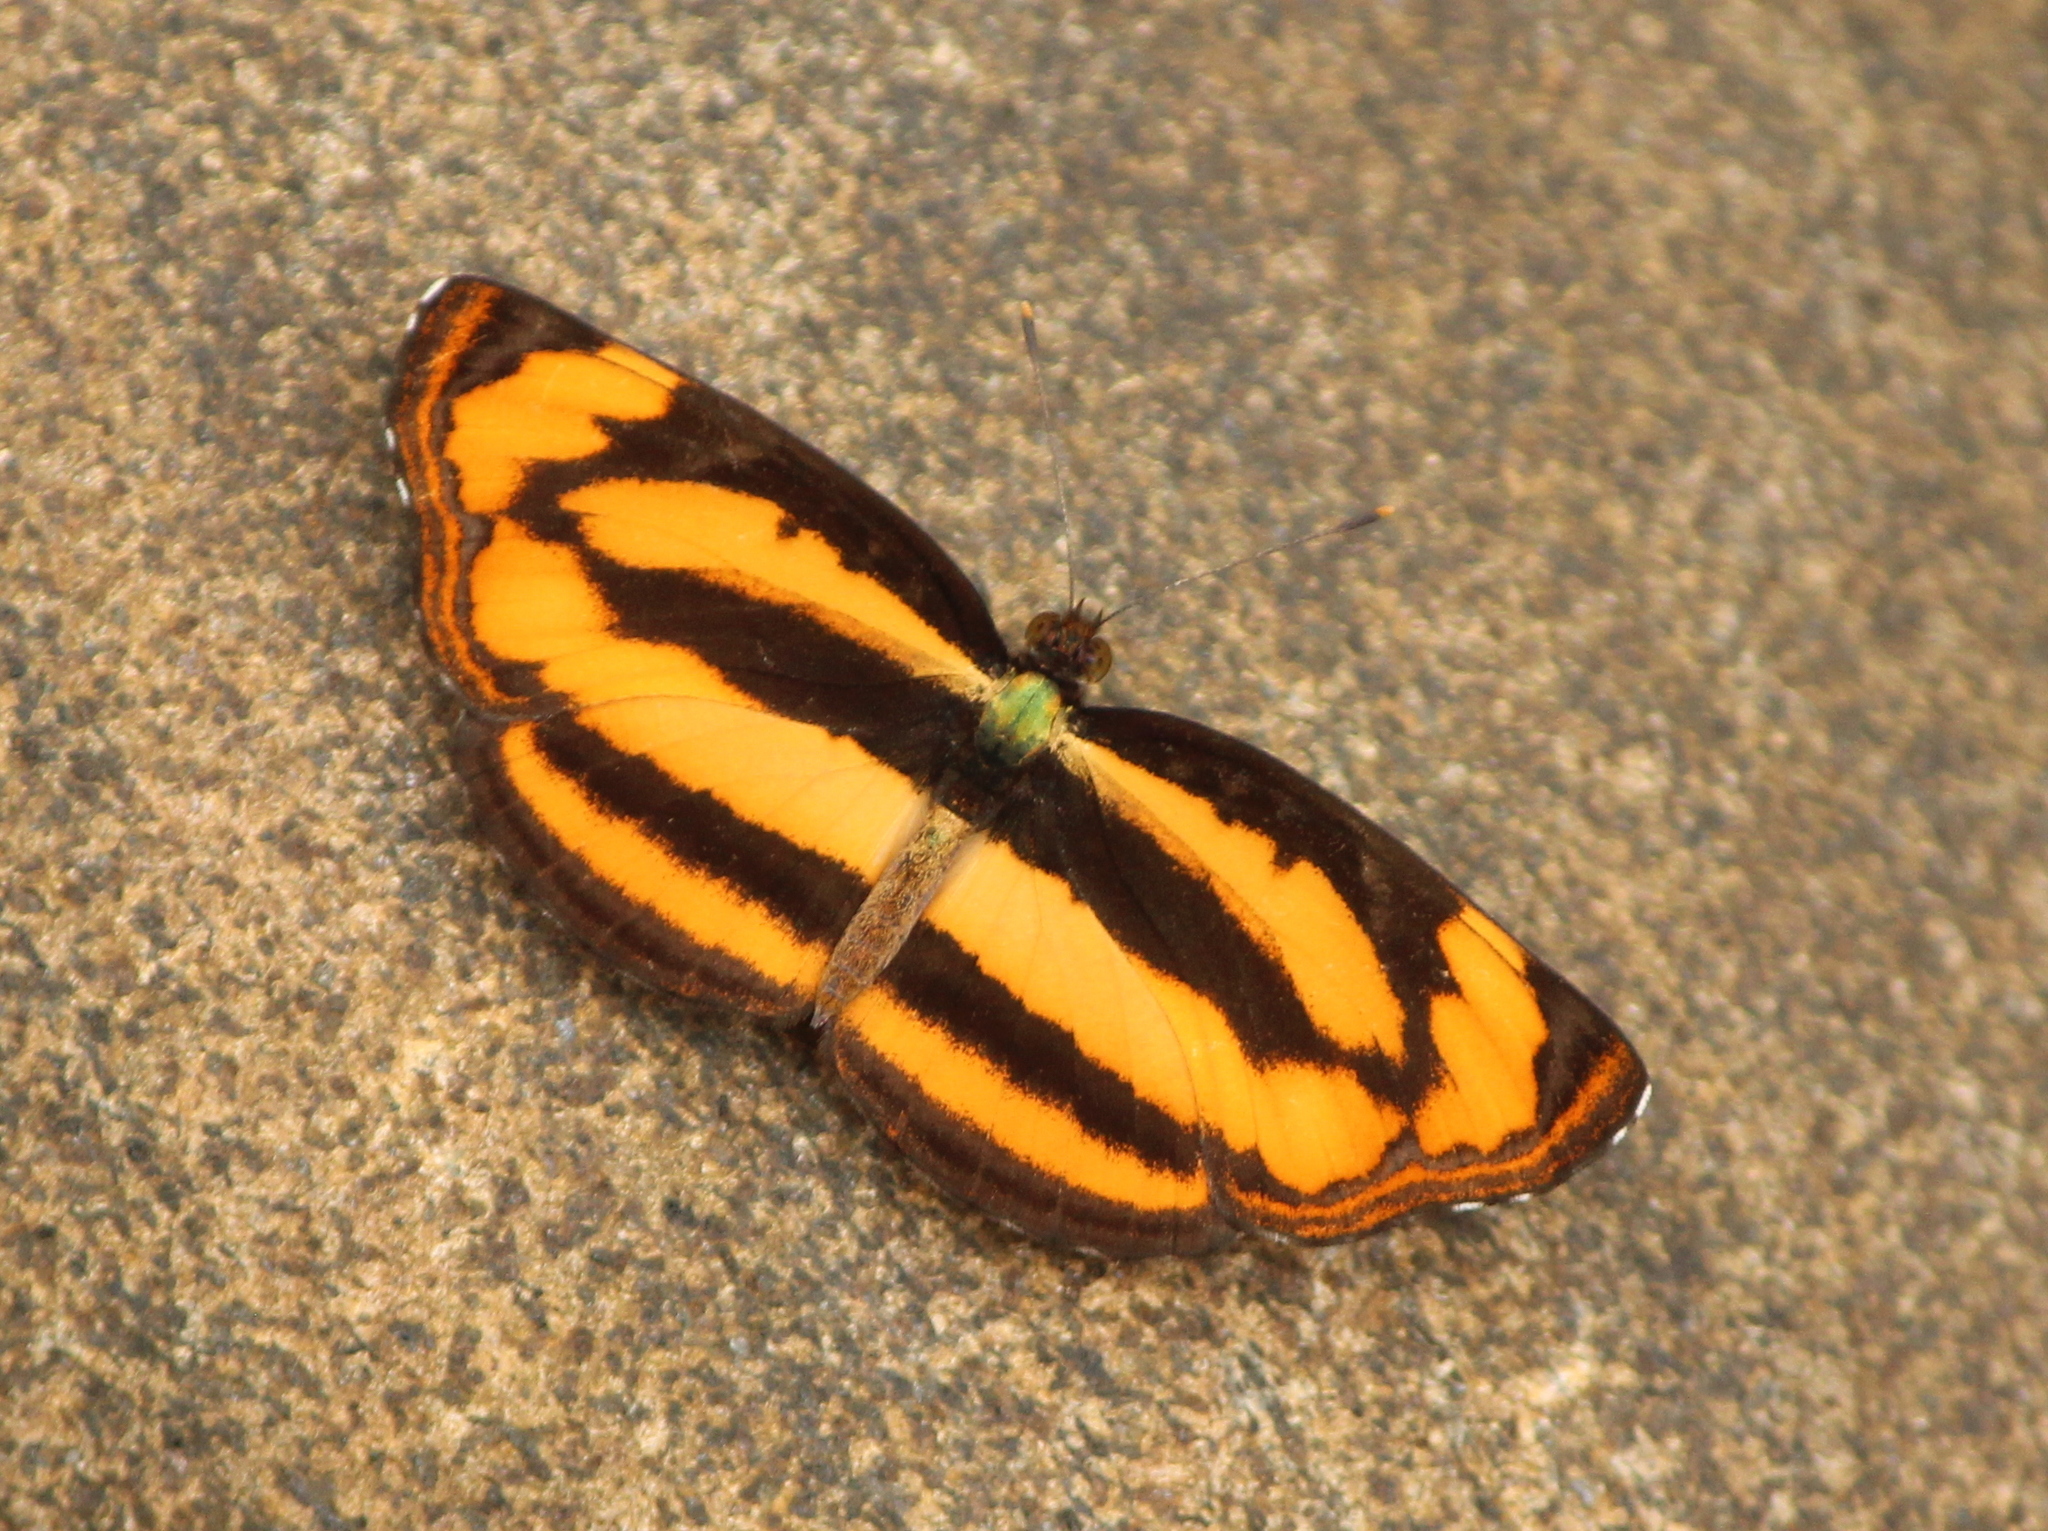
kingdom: Animalia
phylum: Arthropoda
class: Insecta
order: Lepidoptera
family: Nymphalidae
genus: Pantoporia
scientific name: Pantoporia hordonia
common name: Common lascar
